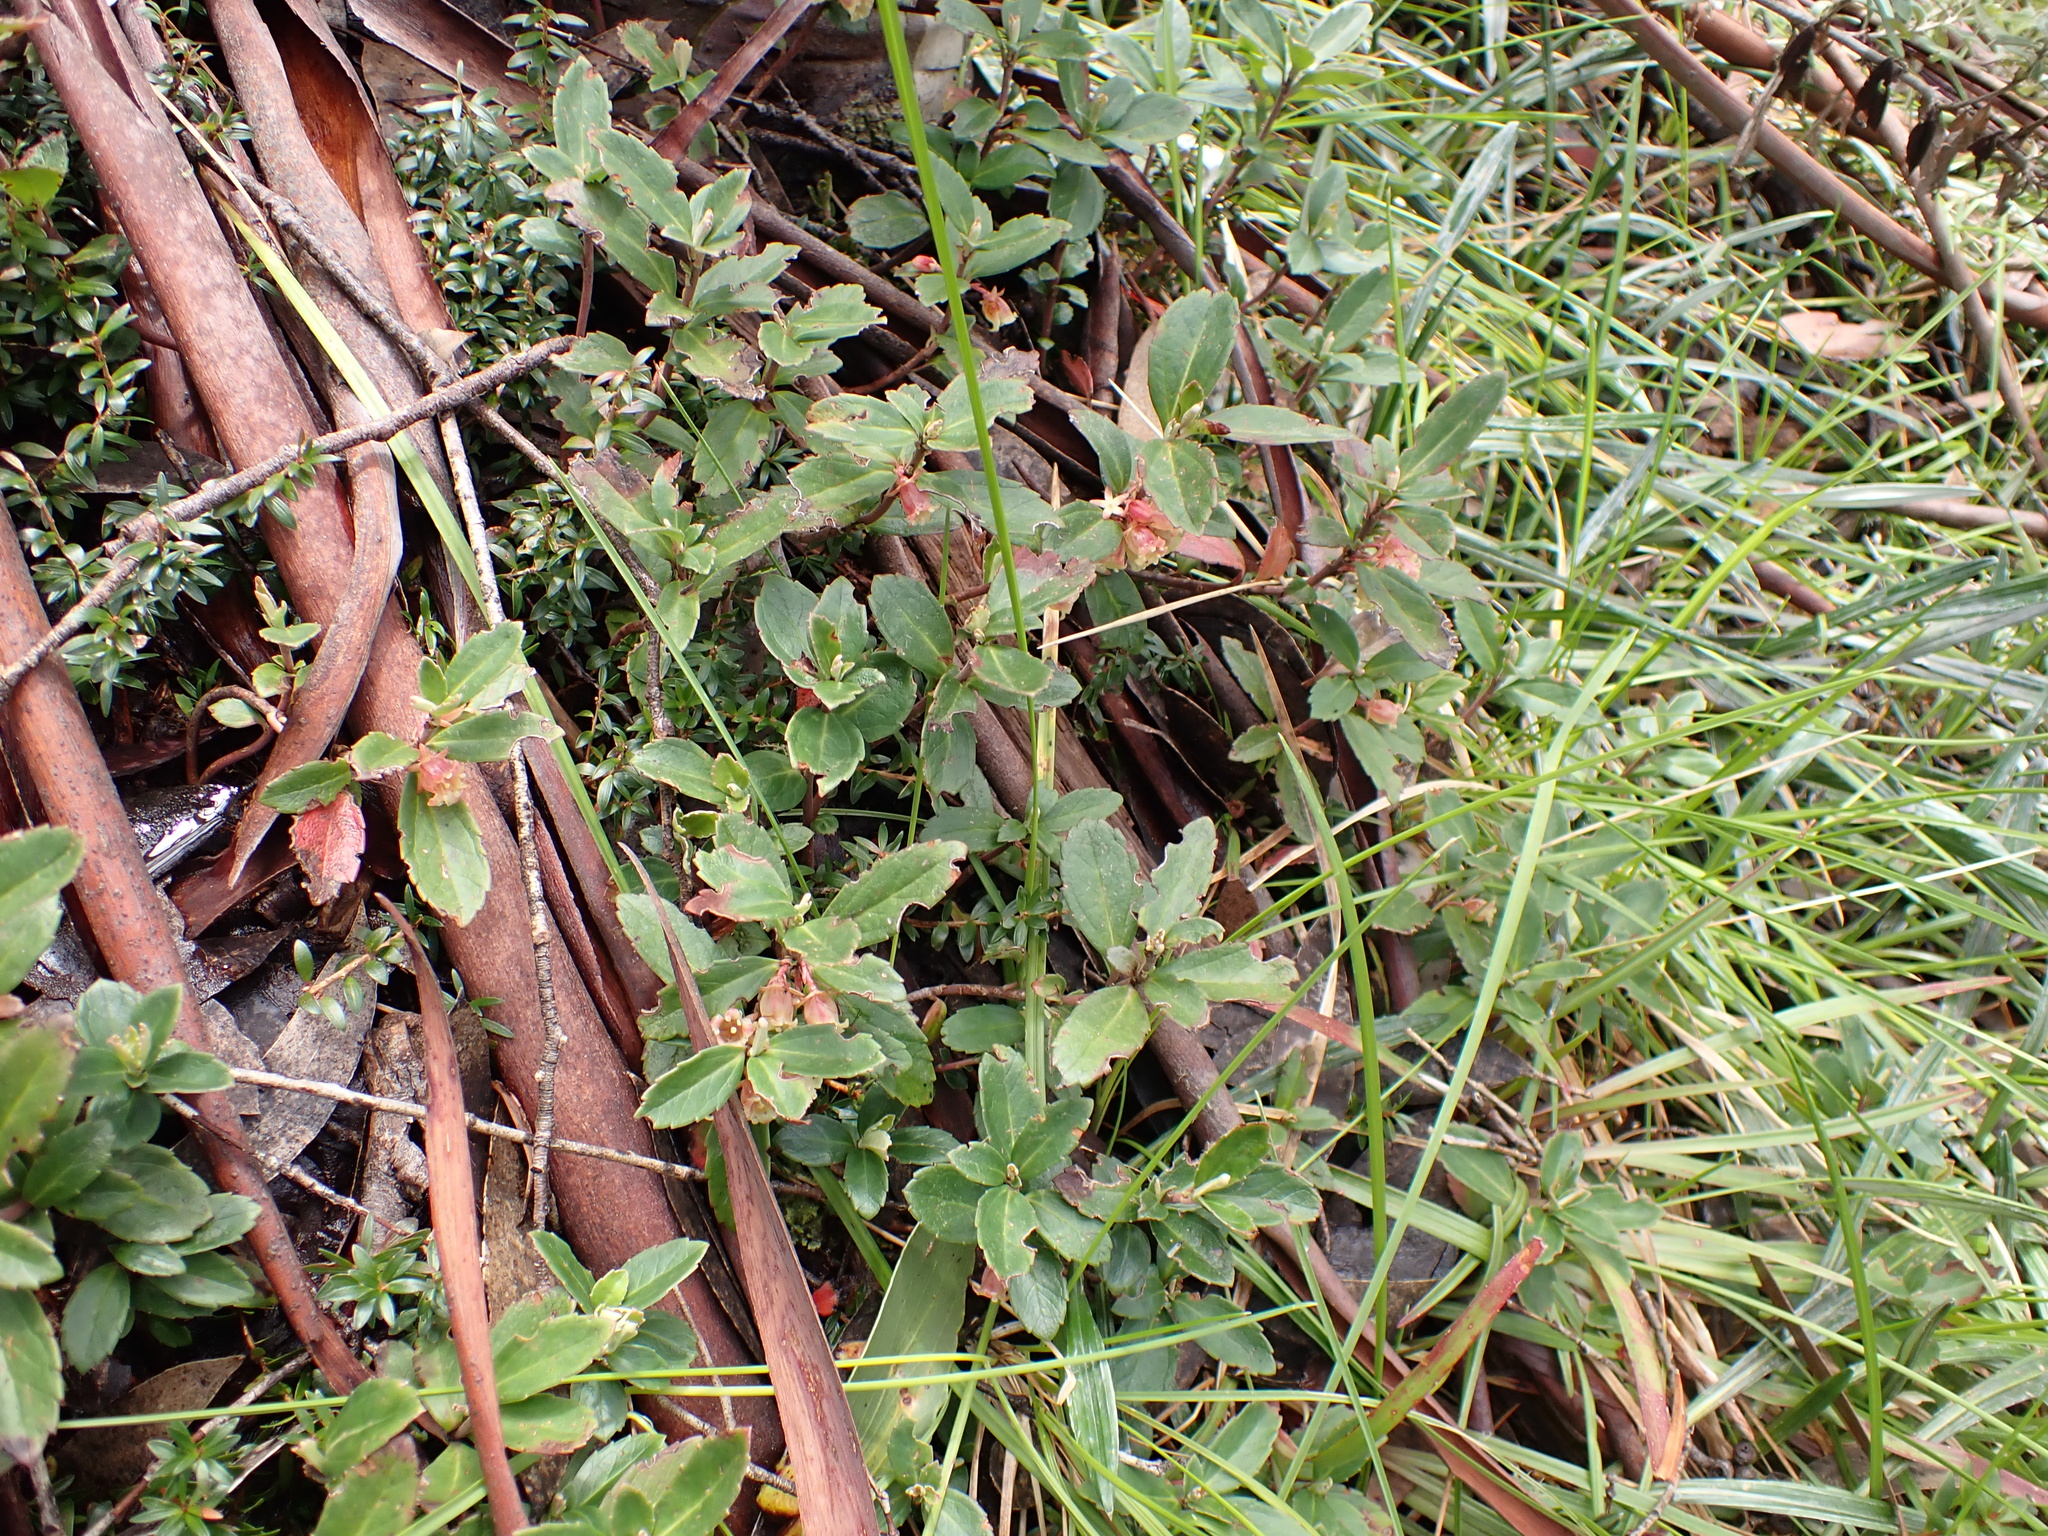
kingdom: Plantae
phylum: Tracheophyta
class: Magnoliopsida
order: Asterales
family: Alseuosmiaceae
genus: Wittsteinia
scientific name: Wittsteinia vacciniacea
